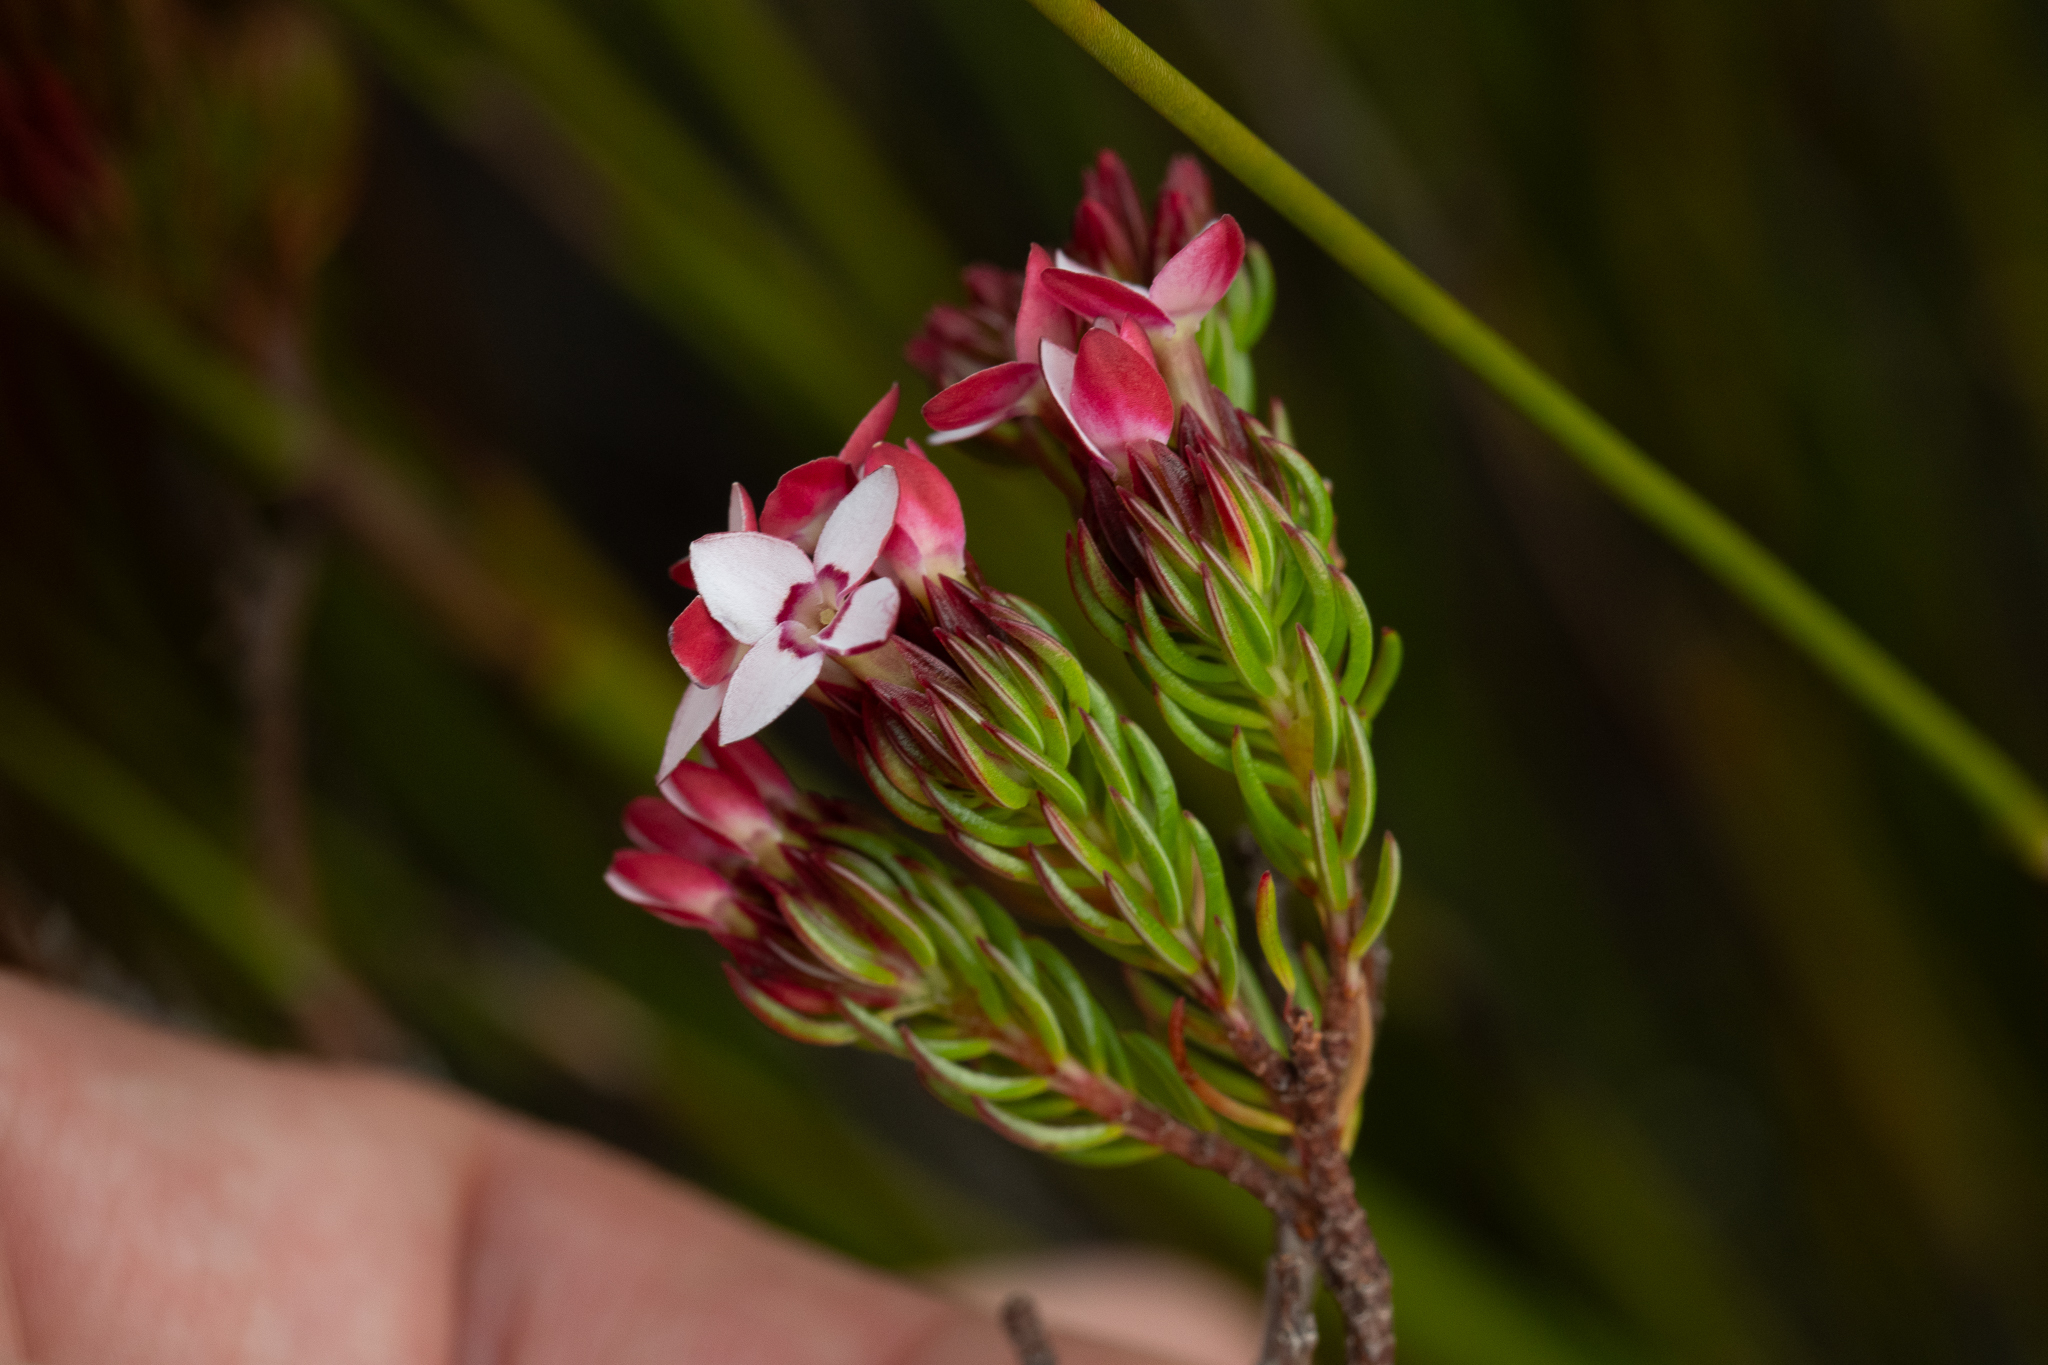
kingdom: Plantae
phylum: Tracheophyta
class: Magnoliopsida
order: Ericales
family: Ericaceae
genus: Erica
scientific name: Erica fastigiata
